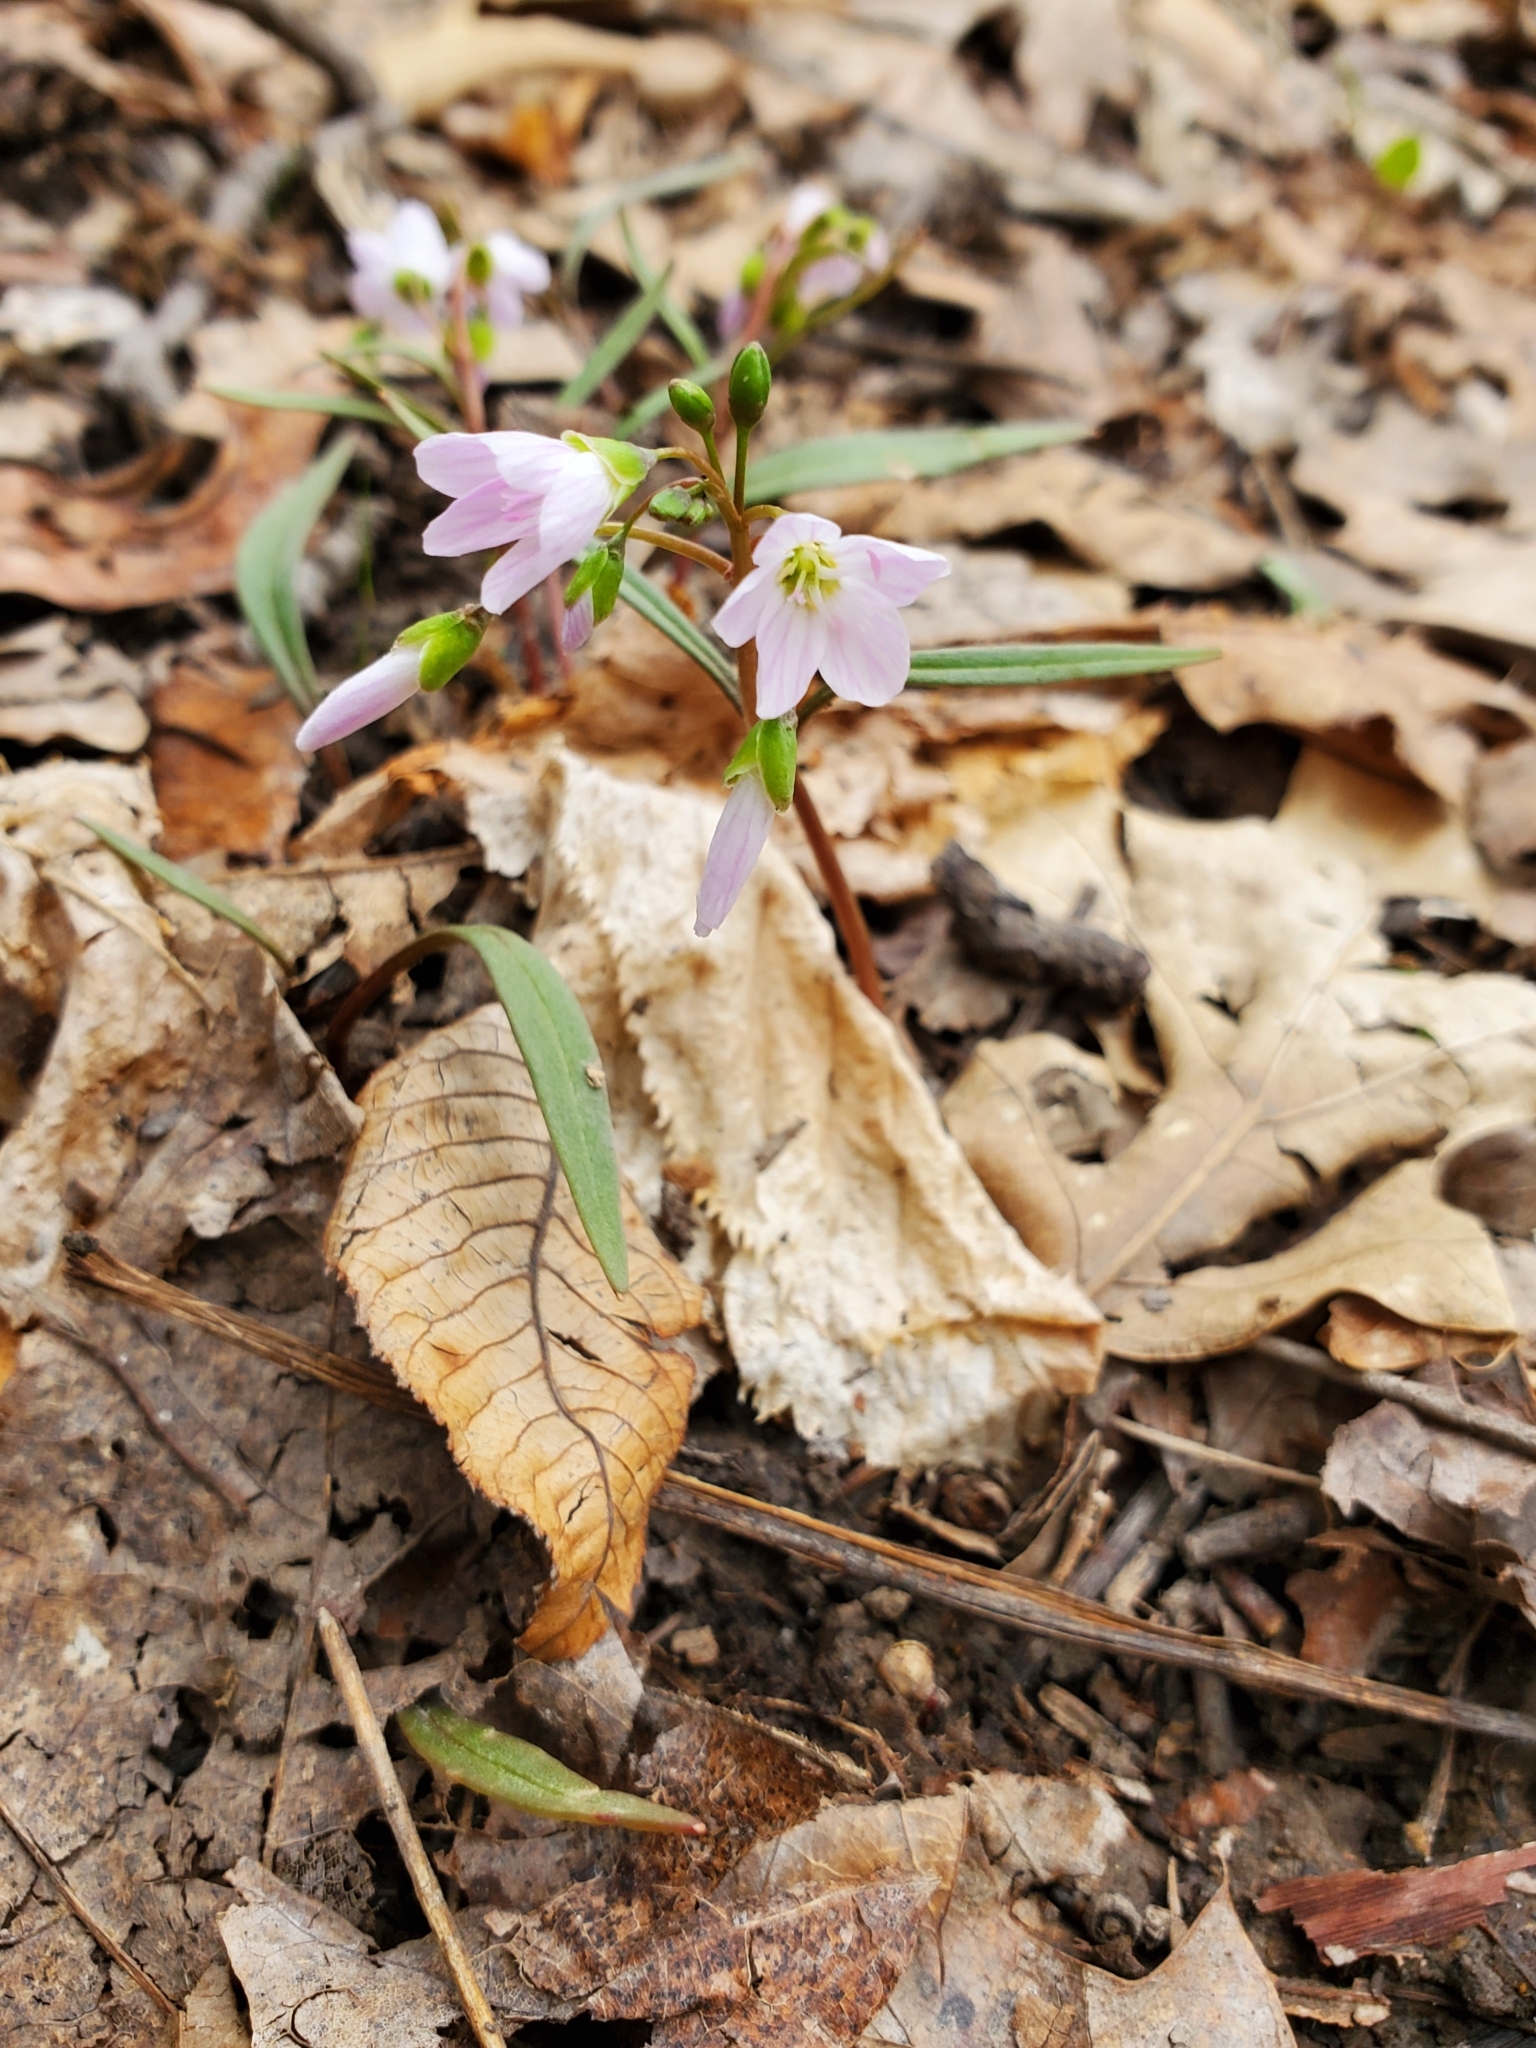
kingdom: Plantae
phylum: Tracheophyta
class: Magnoliopsida
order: Caryophyllales
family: Montiaceae
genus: Claytonia
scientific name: Claytonia virginica
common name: Virginia springbeauty
